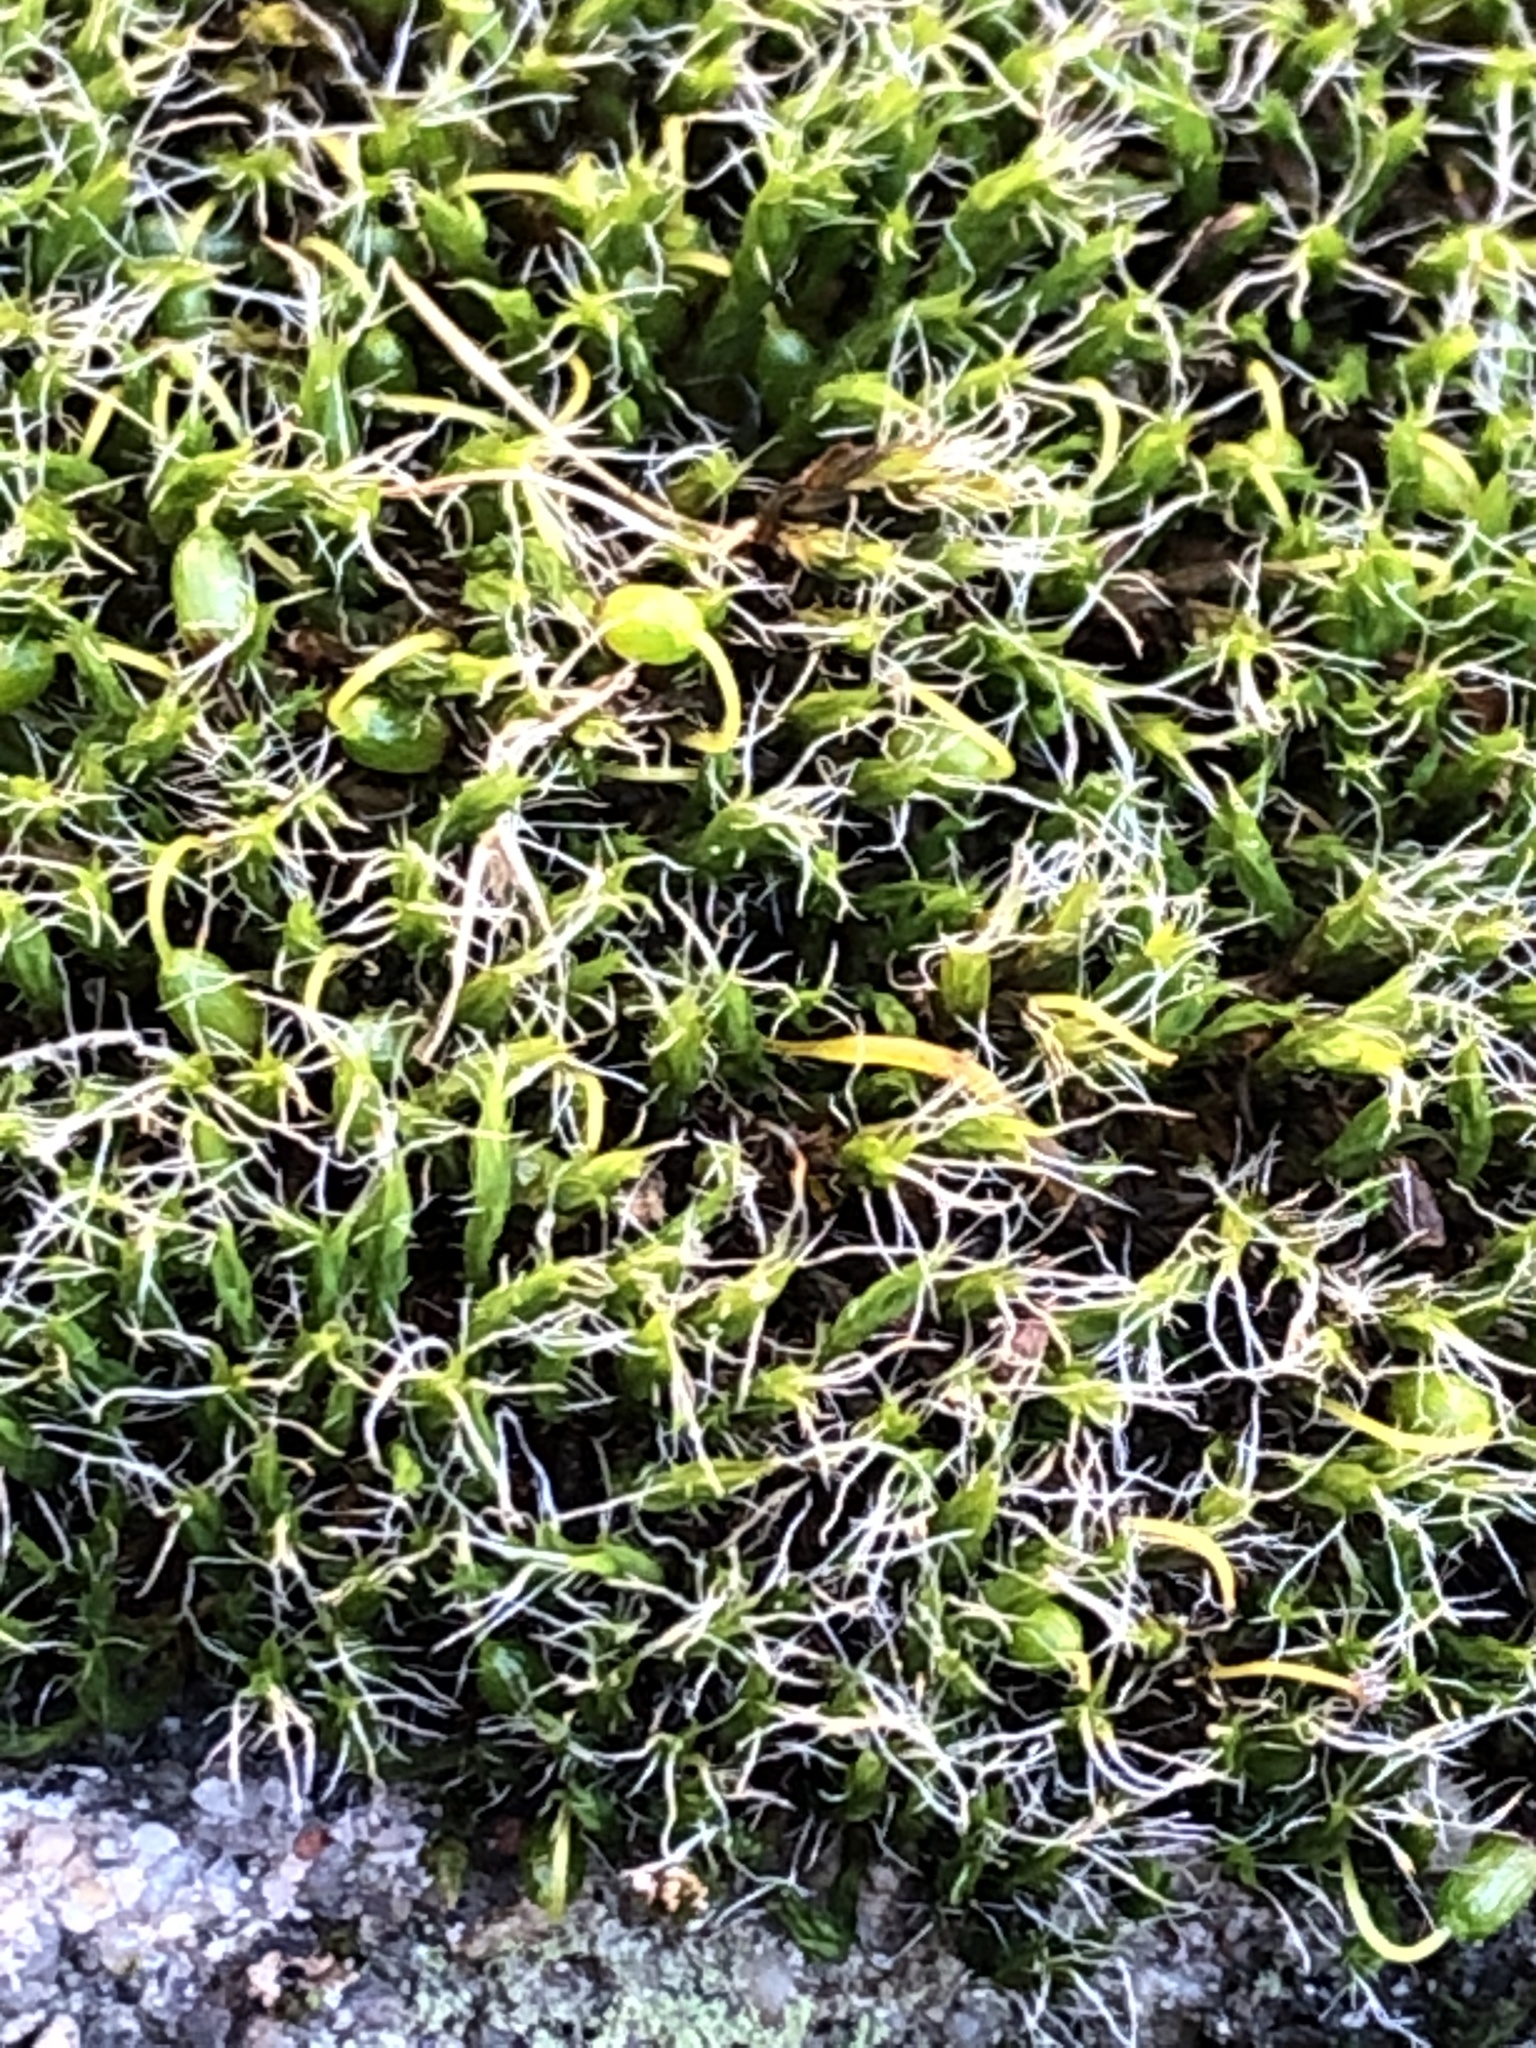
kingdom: Plantae
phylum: Bryophyta
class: Bryopsida
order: Grimmiales
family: Grimmiaceae
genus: Grimmia
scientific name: Grimmia pulvinata
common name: Grey-cushioned grimmia
